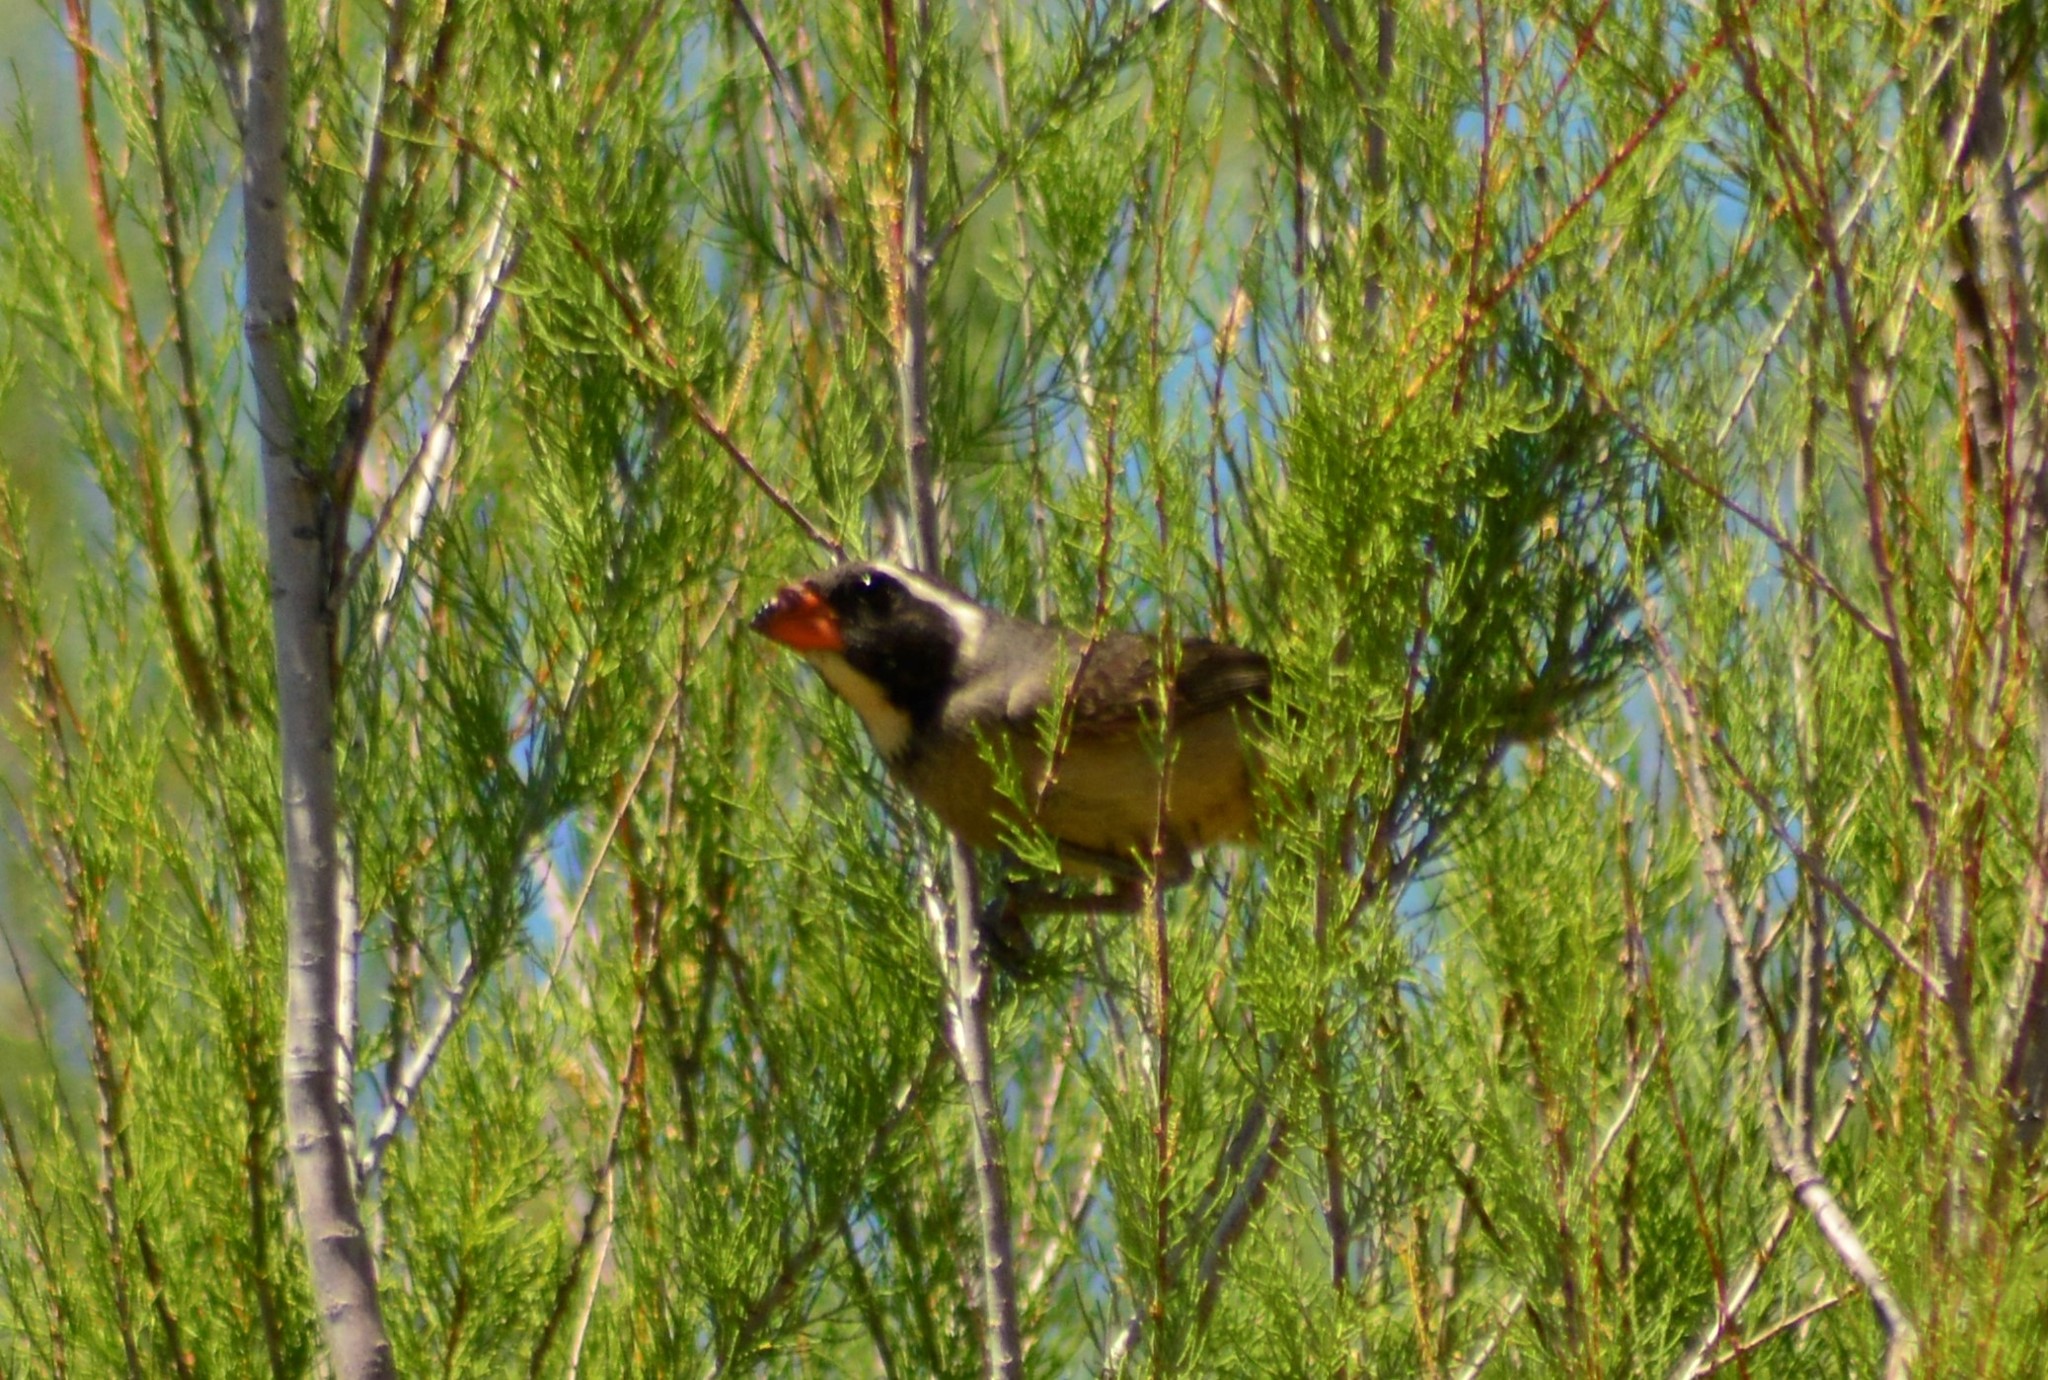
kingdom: Animalia
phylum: Chordata
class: Aves
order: Passeriformes
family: Thraupidae
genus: Saltator
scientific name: Saltator aurantiirostris
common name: Golden-billed saltator
